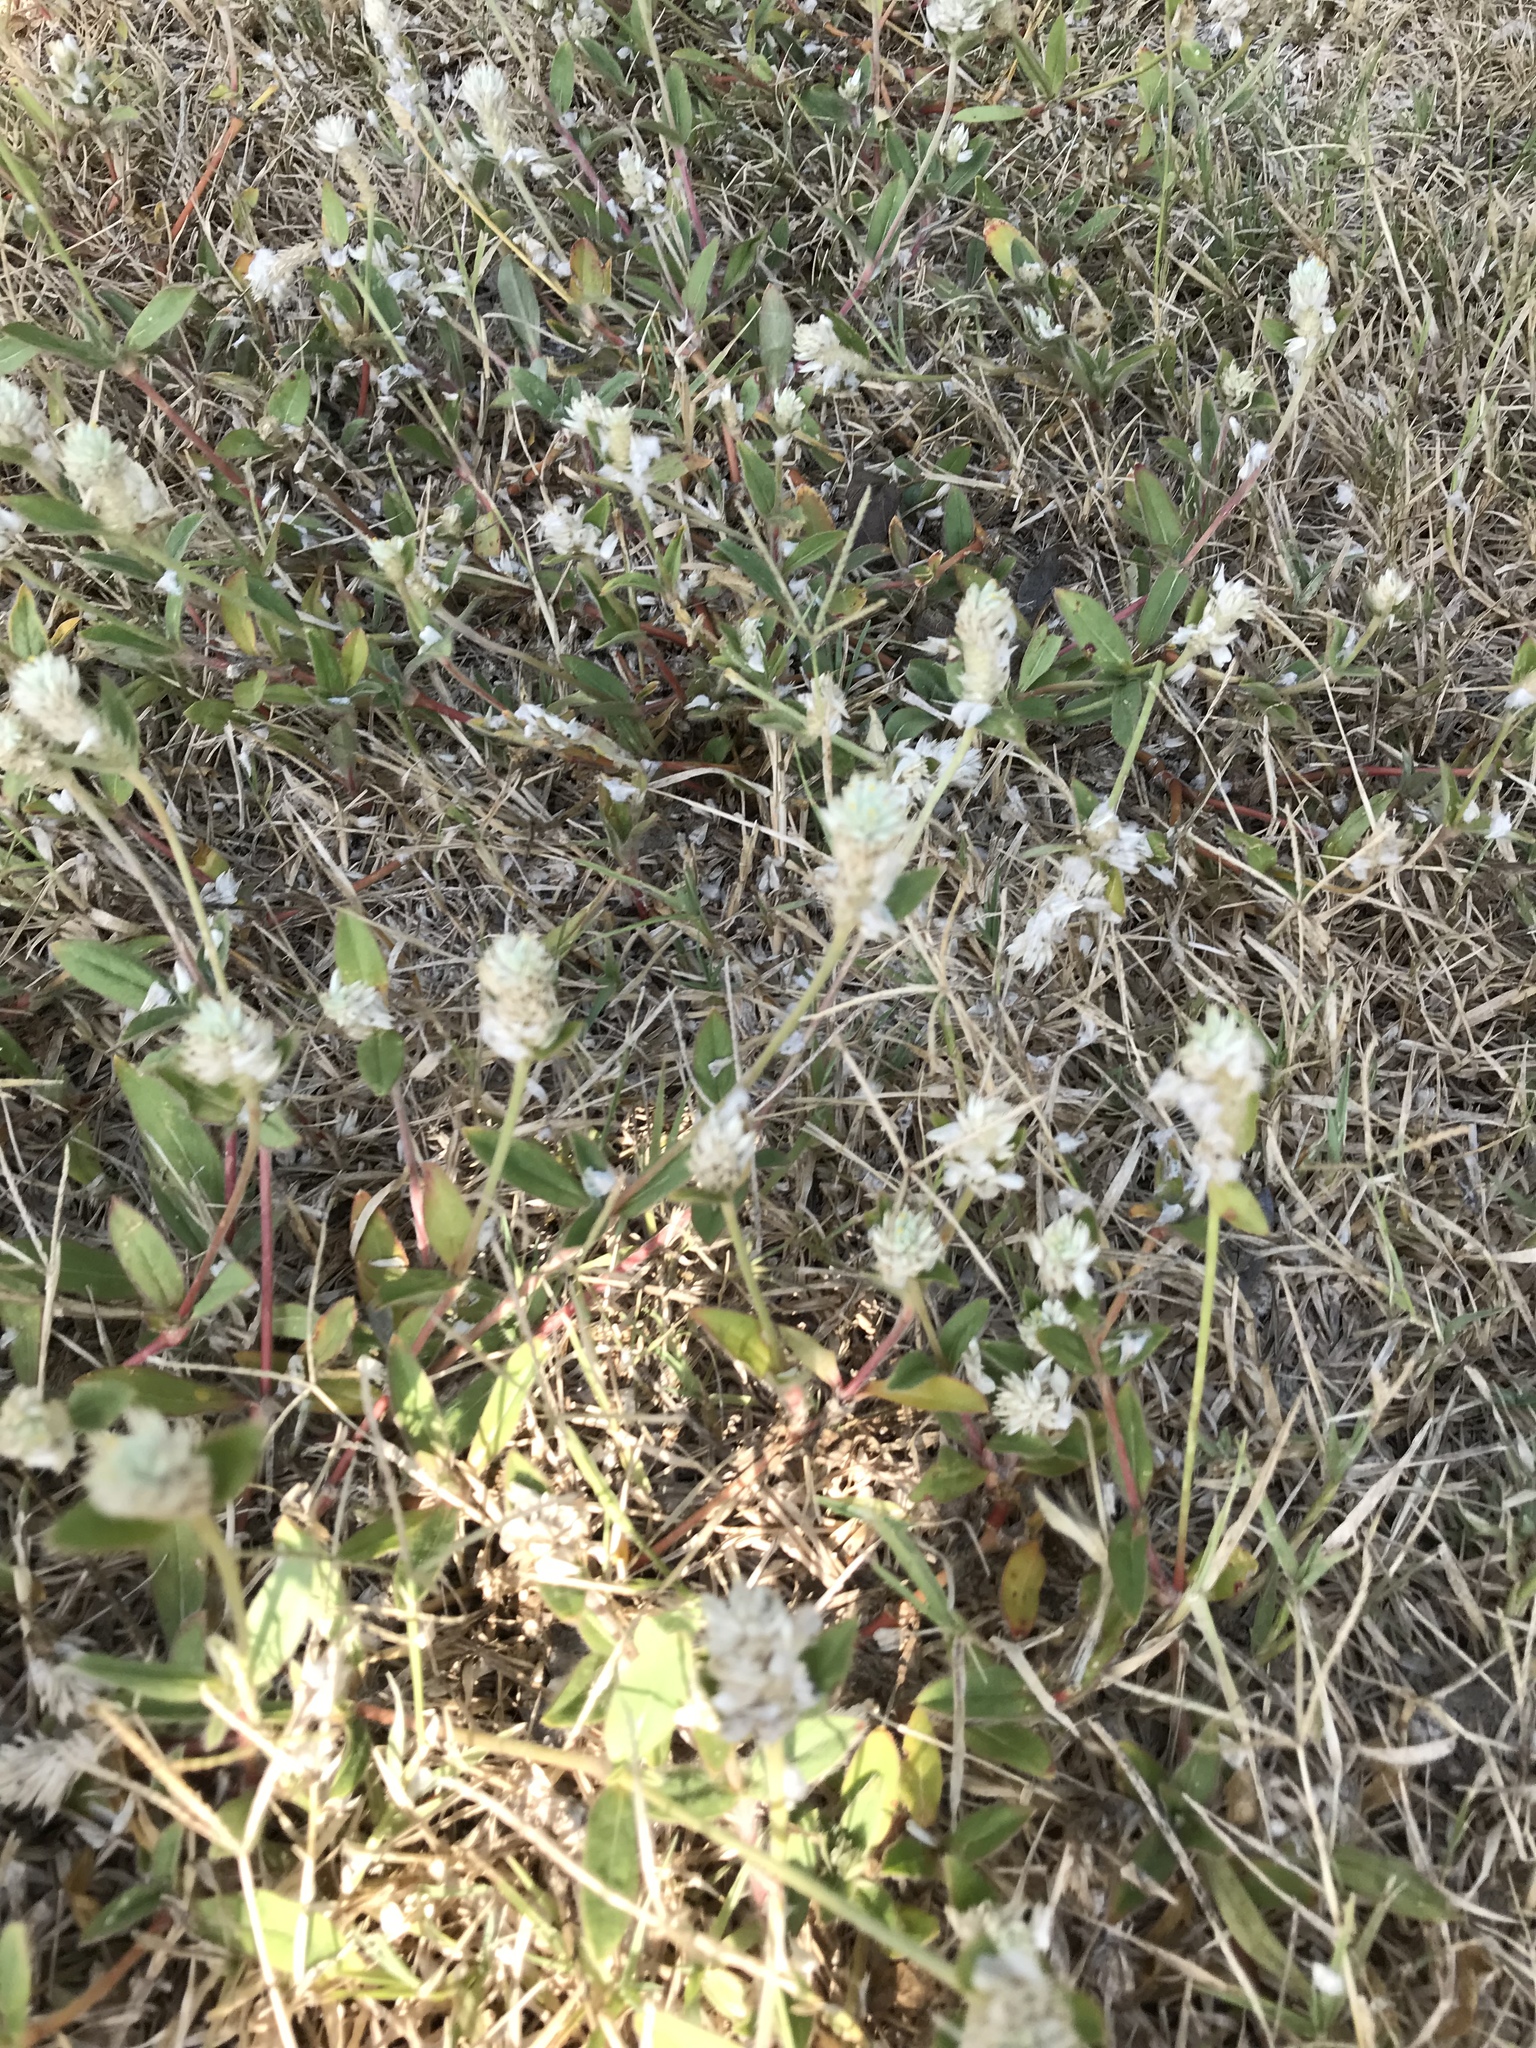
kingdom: Plantae
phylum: Tracheophyta
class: Magnoliopsida
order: Caryophyllales
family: Amaranthaceae
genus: Gomphrena
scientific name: Gomphrena serrata
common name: Arrasa con todo
